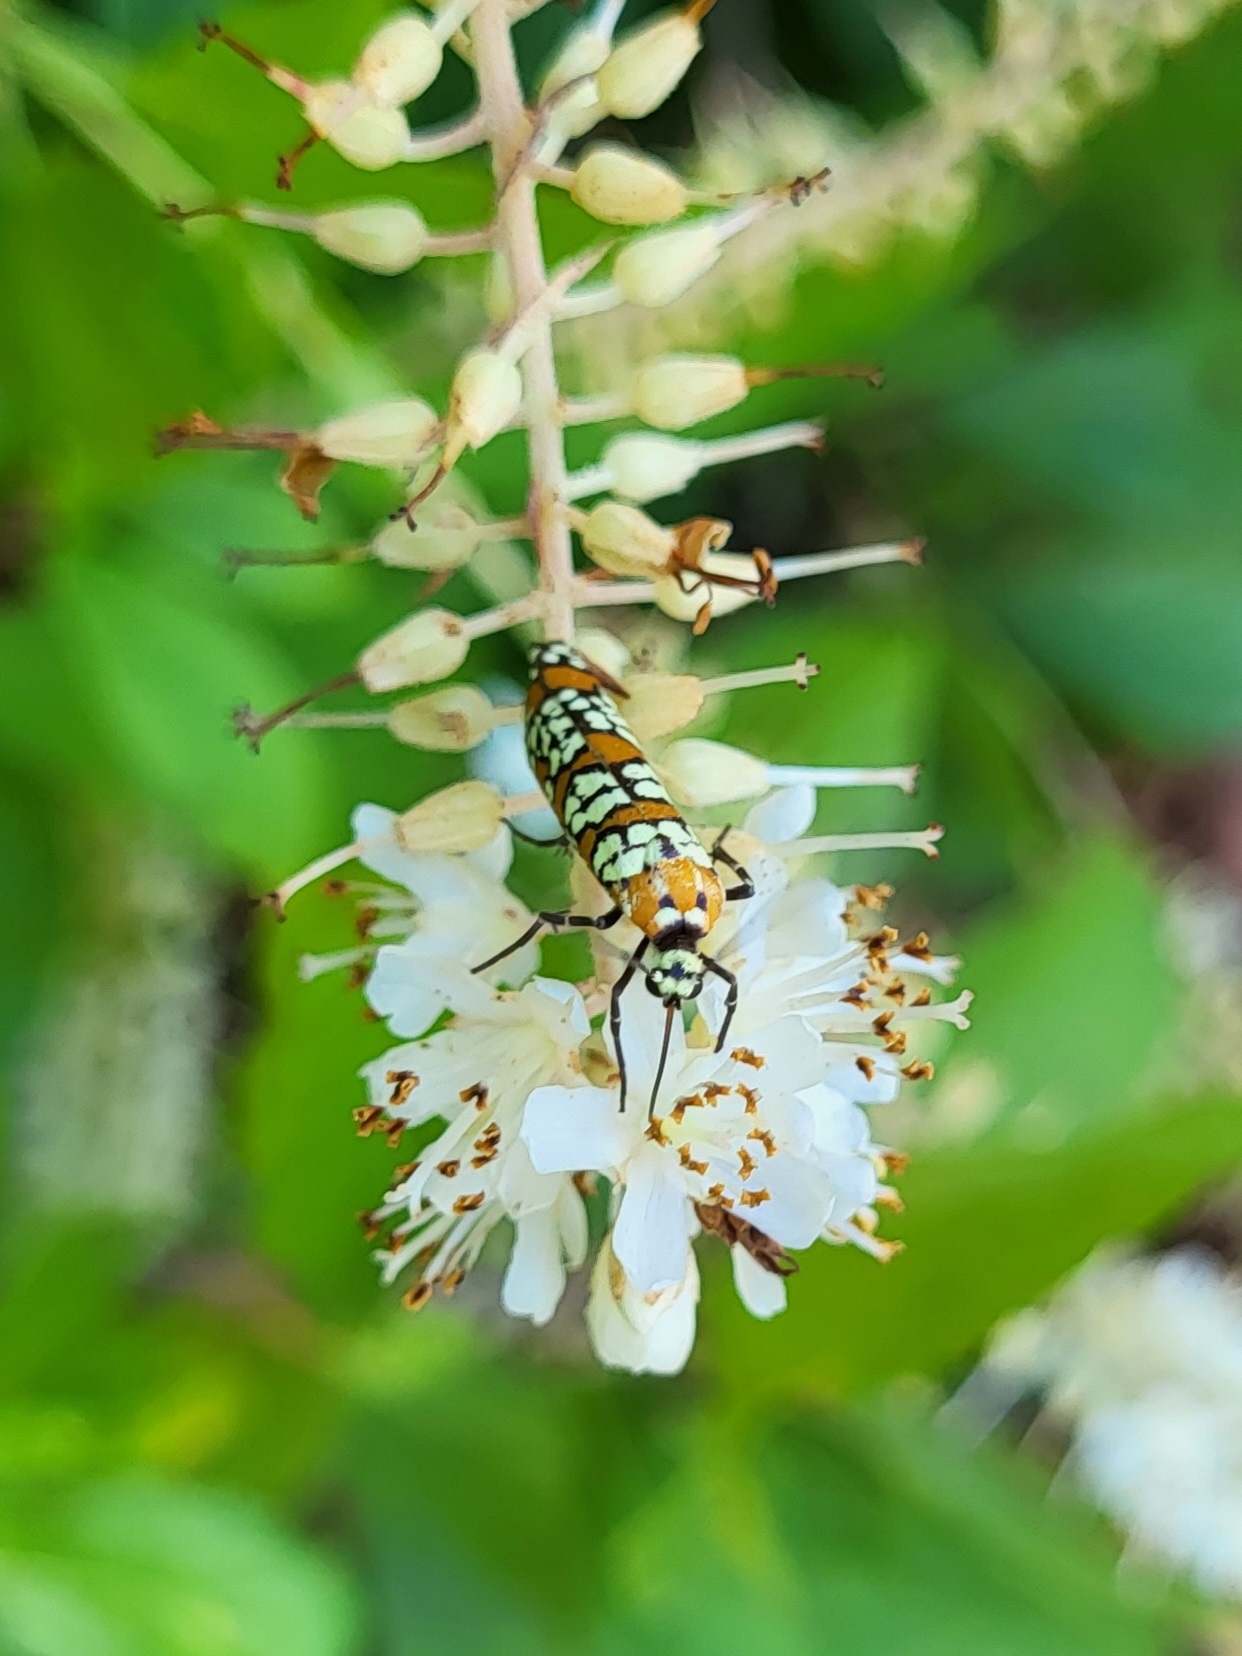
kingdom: Animalia
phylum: Arthropoda
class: Insecta
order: Lepidoptera
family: Attevidae
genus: Atteva
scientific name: Atteva punctella
